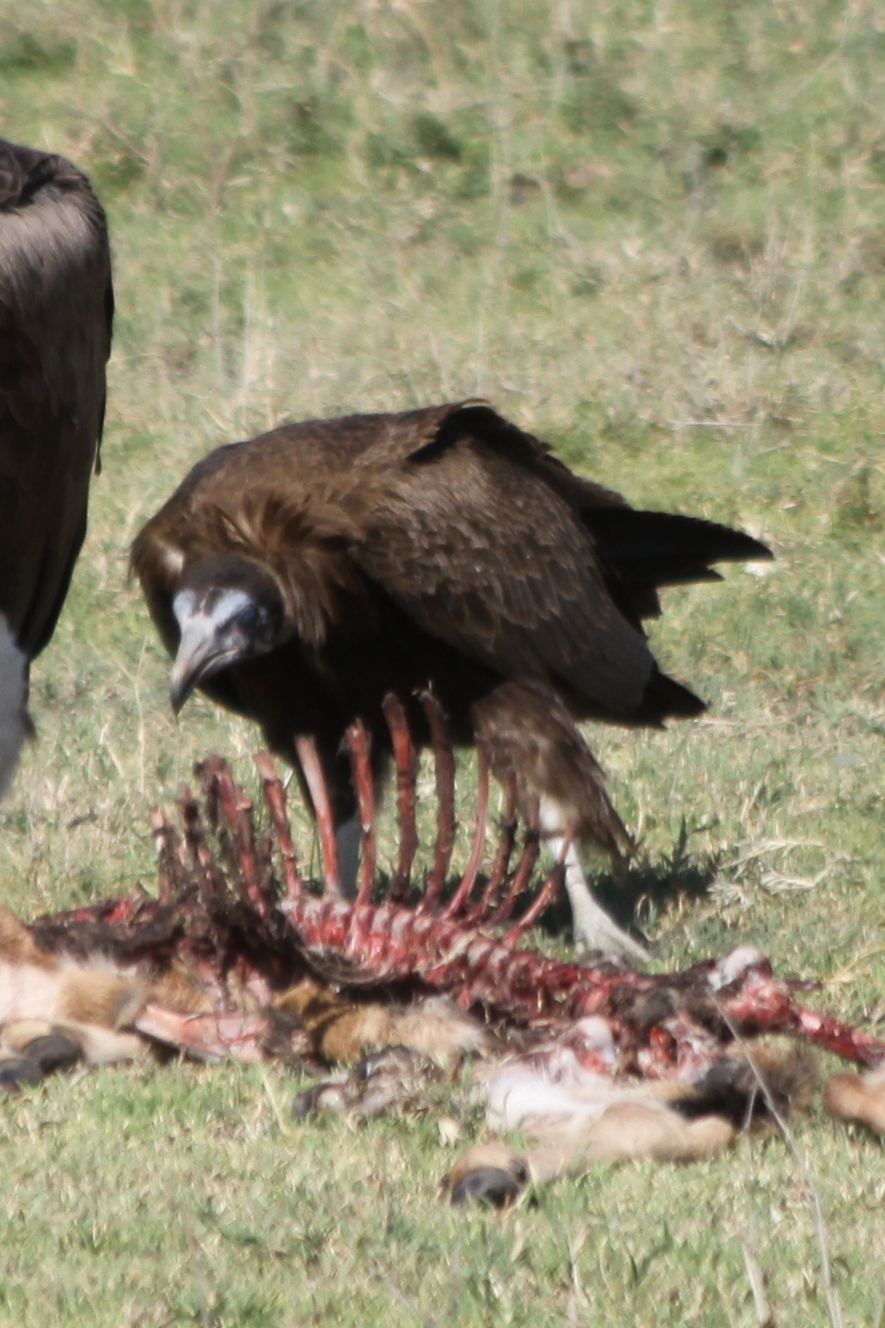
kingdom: Animalia
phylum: Chordata
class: Aves
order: Accipitriformes
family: Accipitridae
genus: Necrosyrtes
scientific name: Necrosyrtes monachus
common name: Hooded vulture
